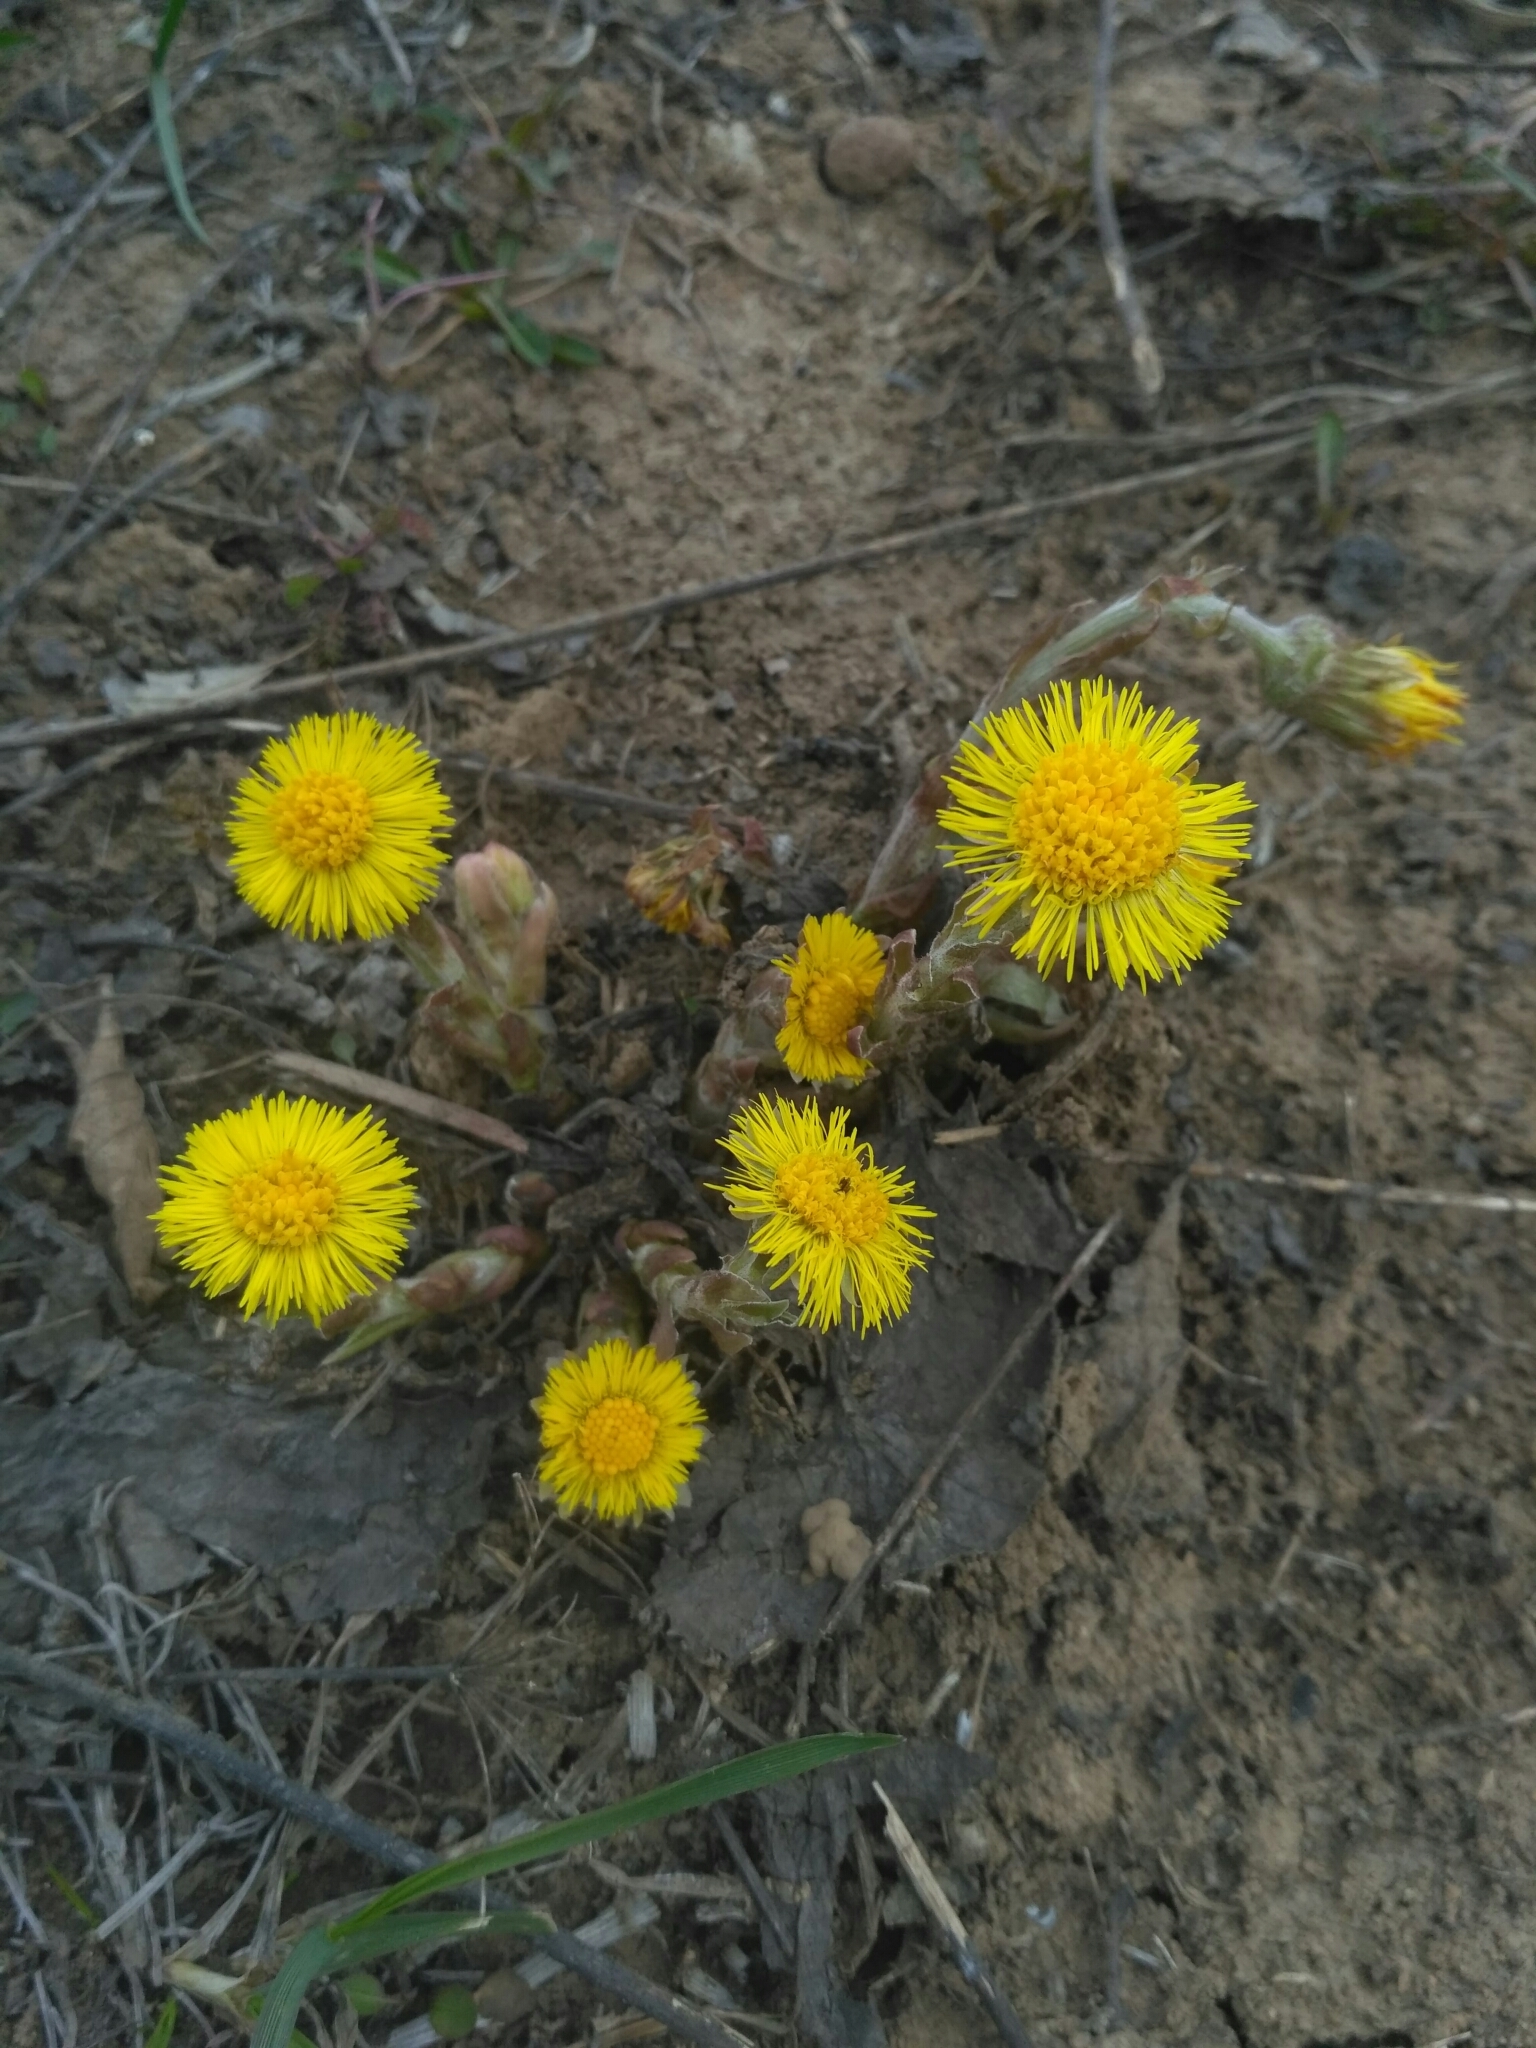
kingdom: Plantae
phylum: Tracheophyta
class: Magnoliopsida
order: Asterales
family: Asteraceae
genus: Tussilago
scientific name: Tussilago farfara
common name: Coltsfoot
